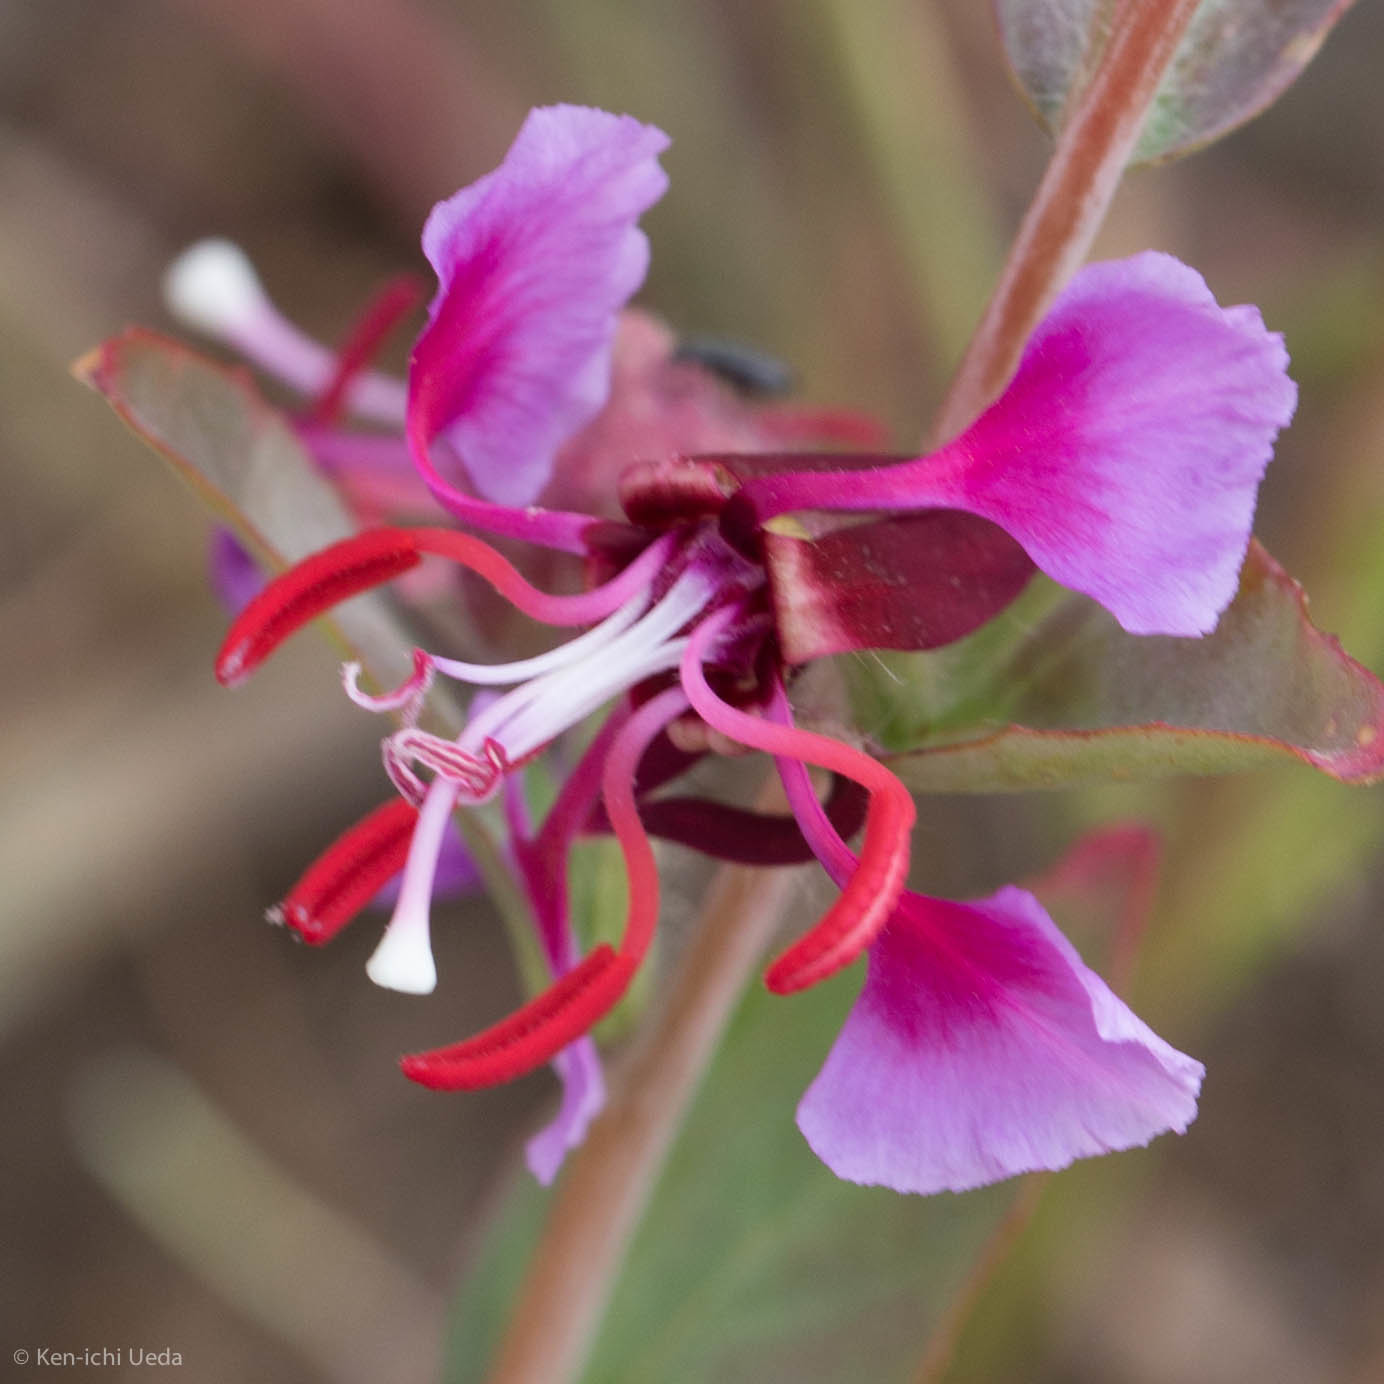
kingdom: Plantae
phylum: Tracheophyta
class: Magnoliopsida
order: Myrtales
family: Onagraceae
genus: Clarkia
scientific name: Clarkia unguiculata
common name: Clarkia
